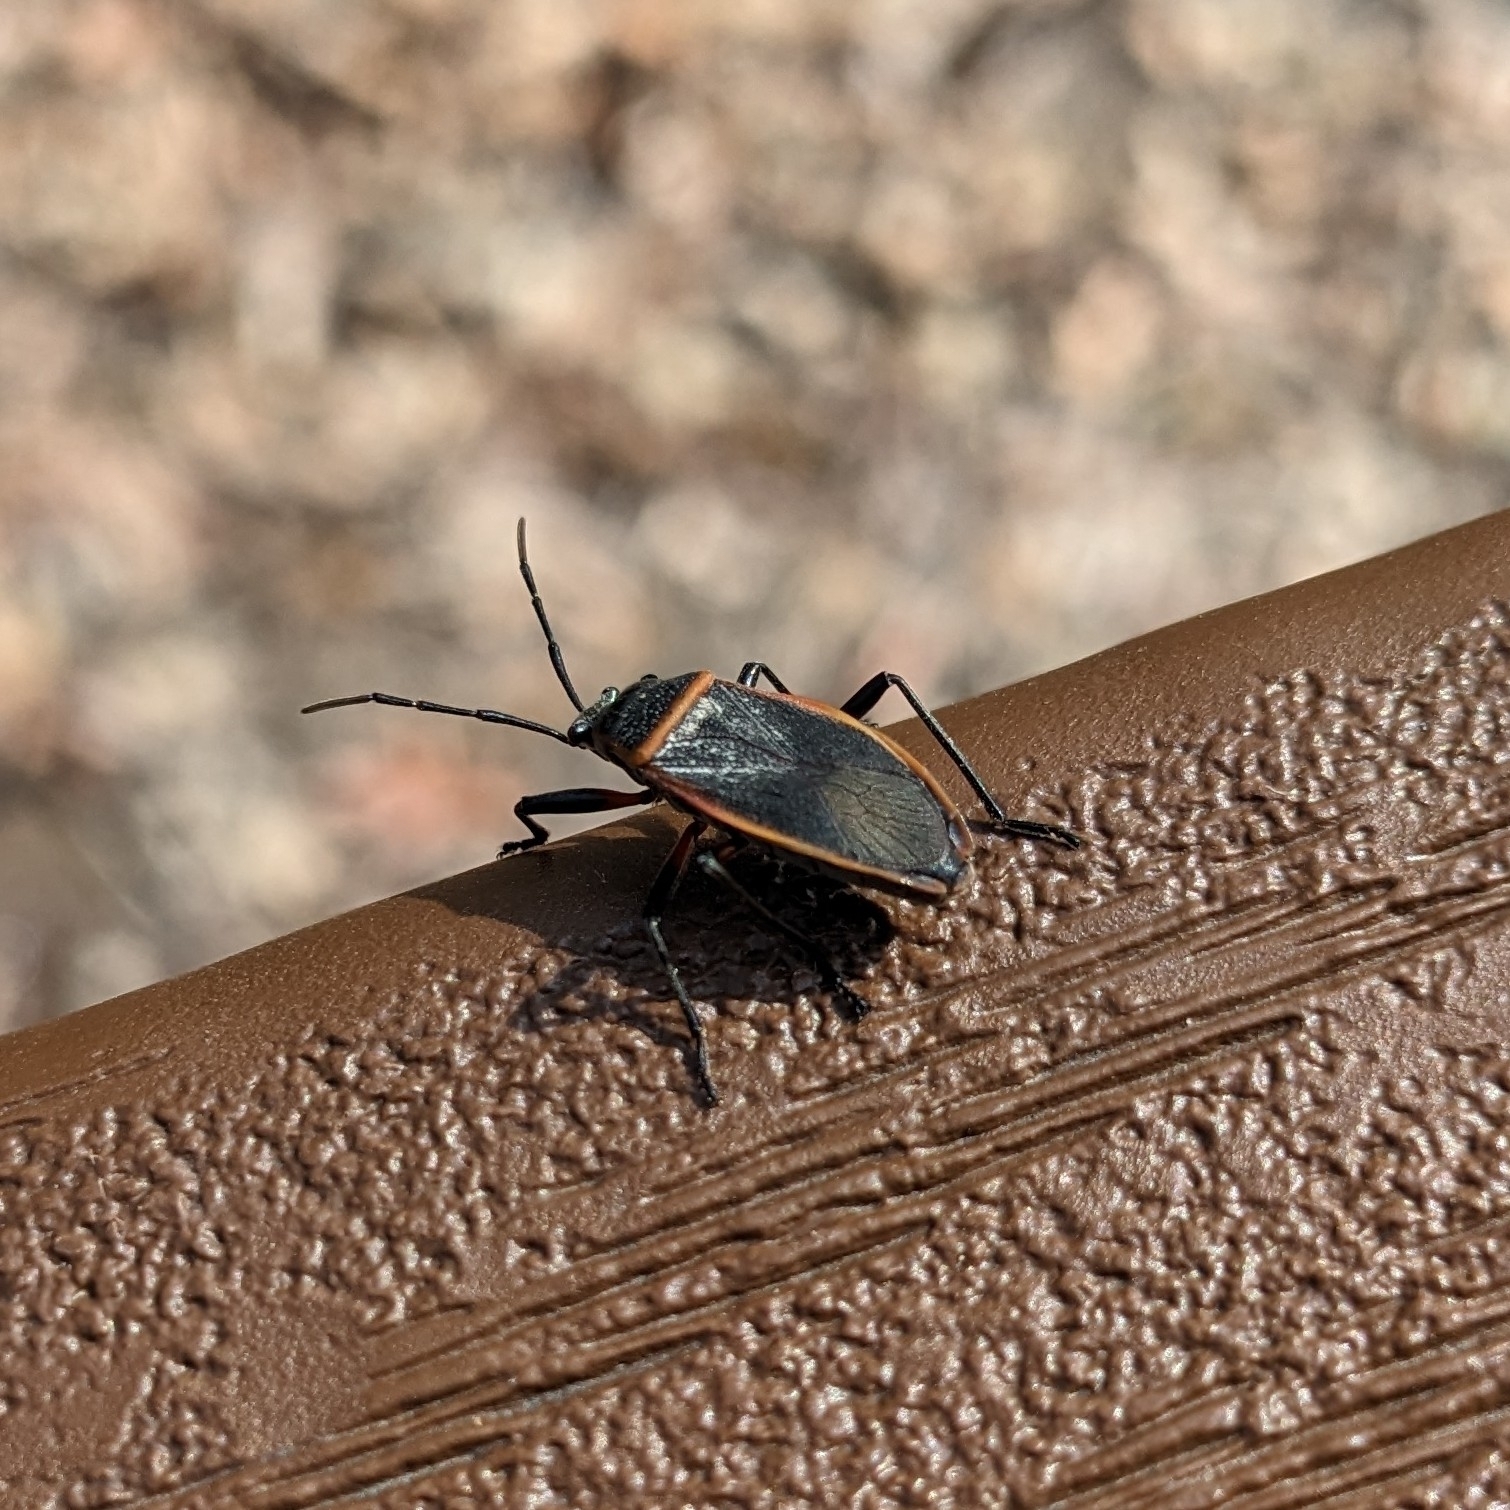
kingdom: Animalia
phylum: Arthropoda
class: Insecta
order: Hemiptera
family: Largidae
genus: Largus
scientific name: Largus succinctus
